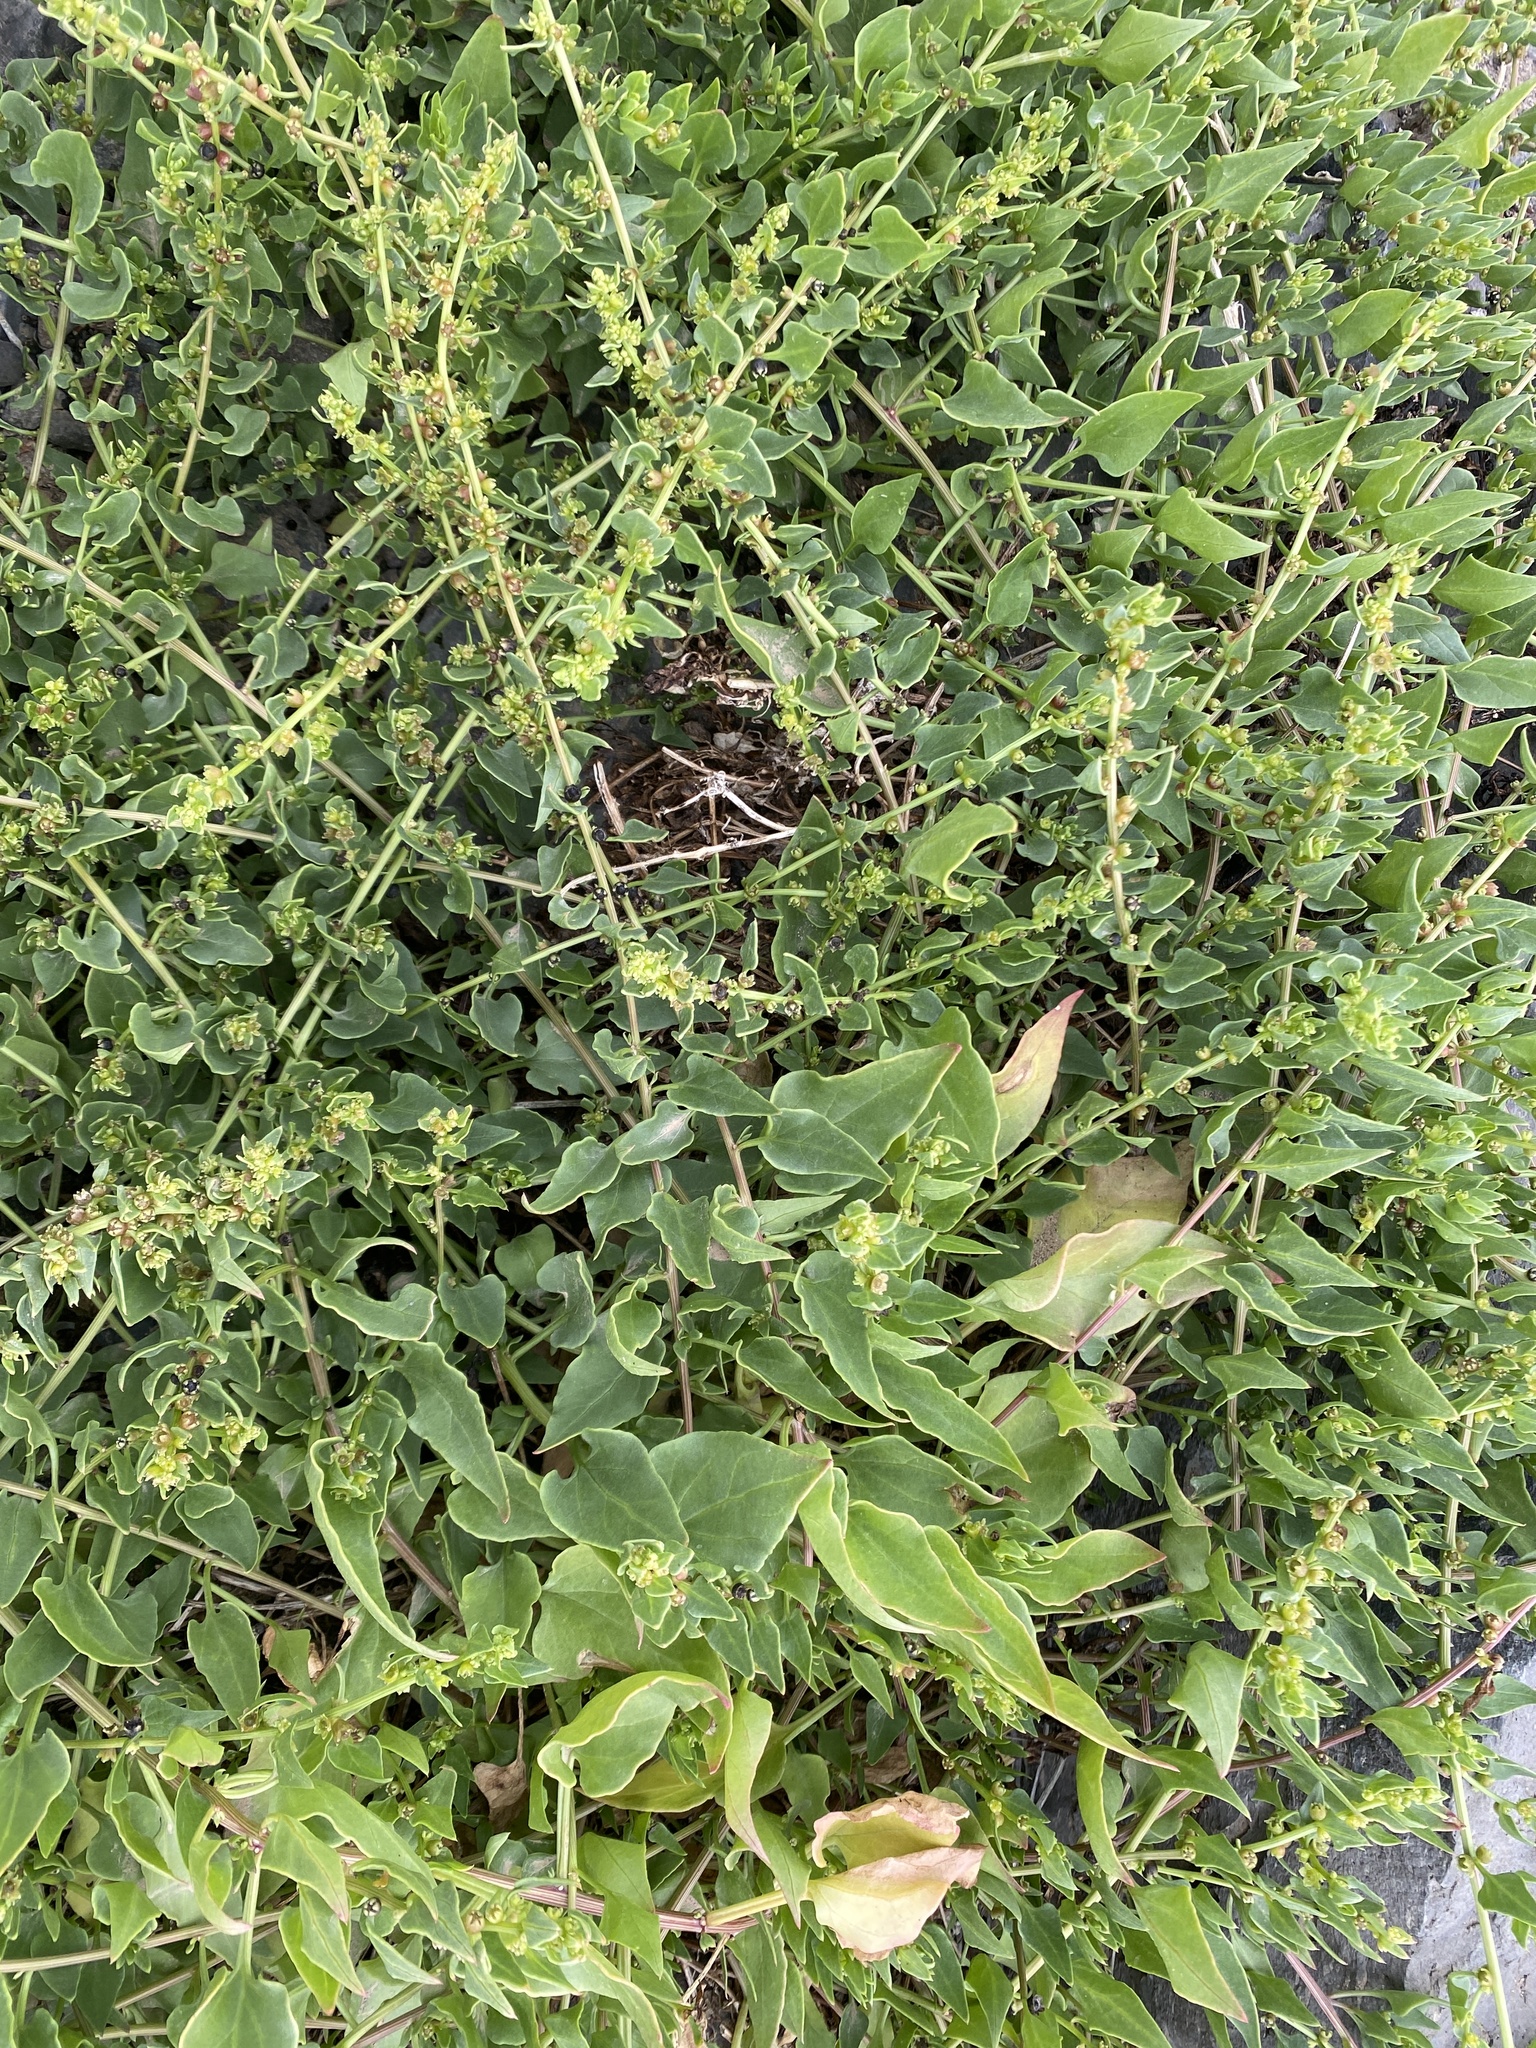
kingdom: Plantae
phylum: Tracheophyta
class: Magnoliopsida
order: Caryophyllales
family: Amaranthaceae
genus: Patellifolia
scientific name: Patellifolia procumbens
